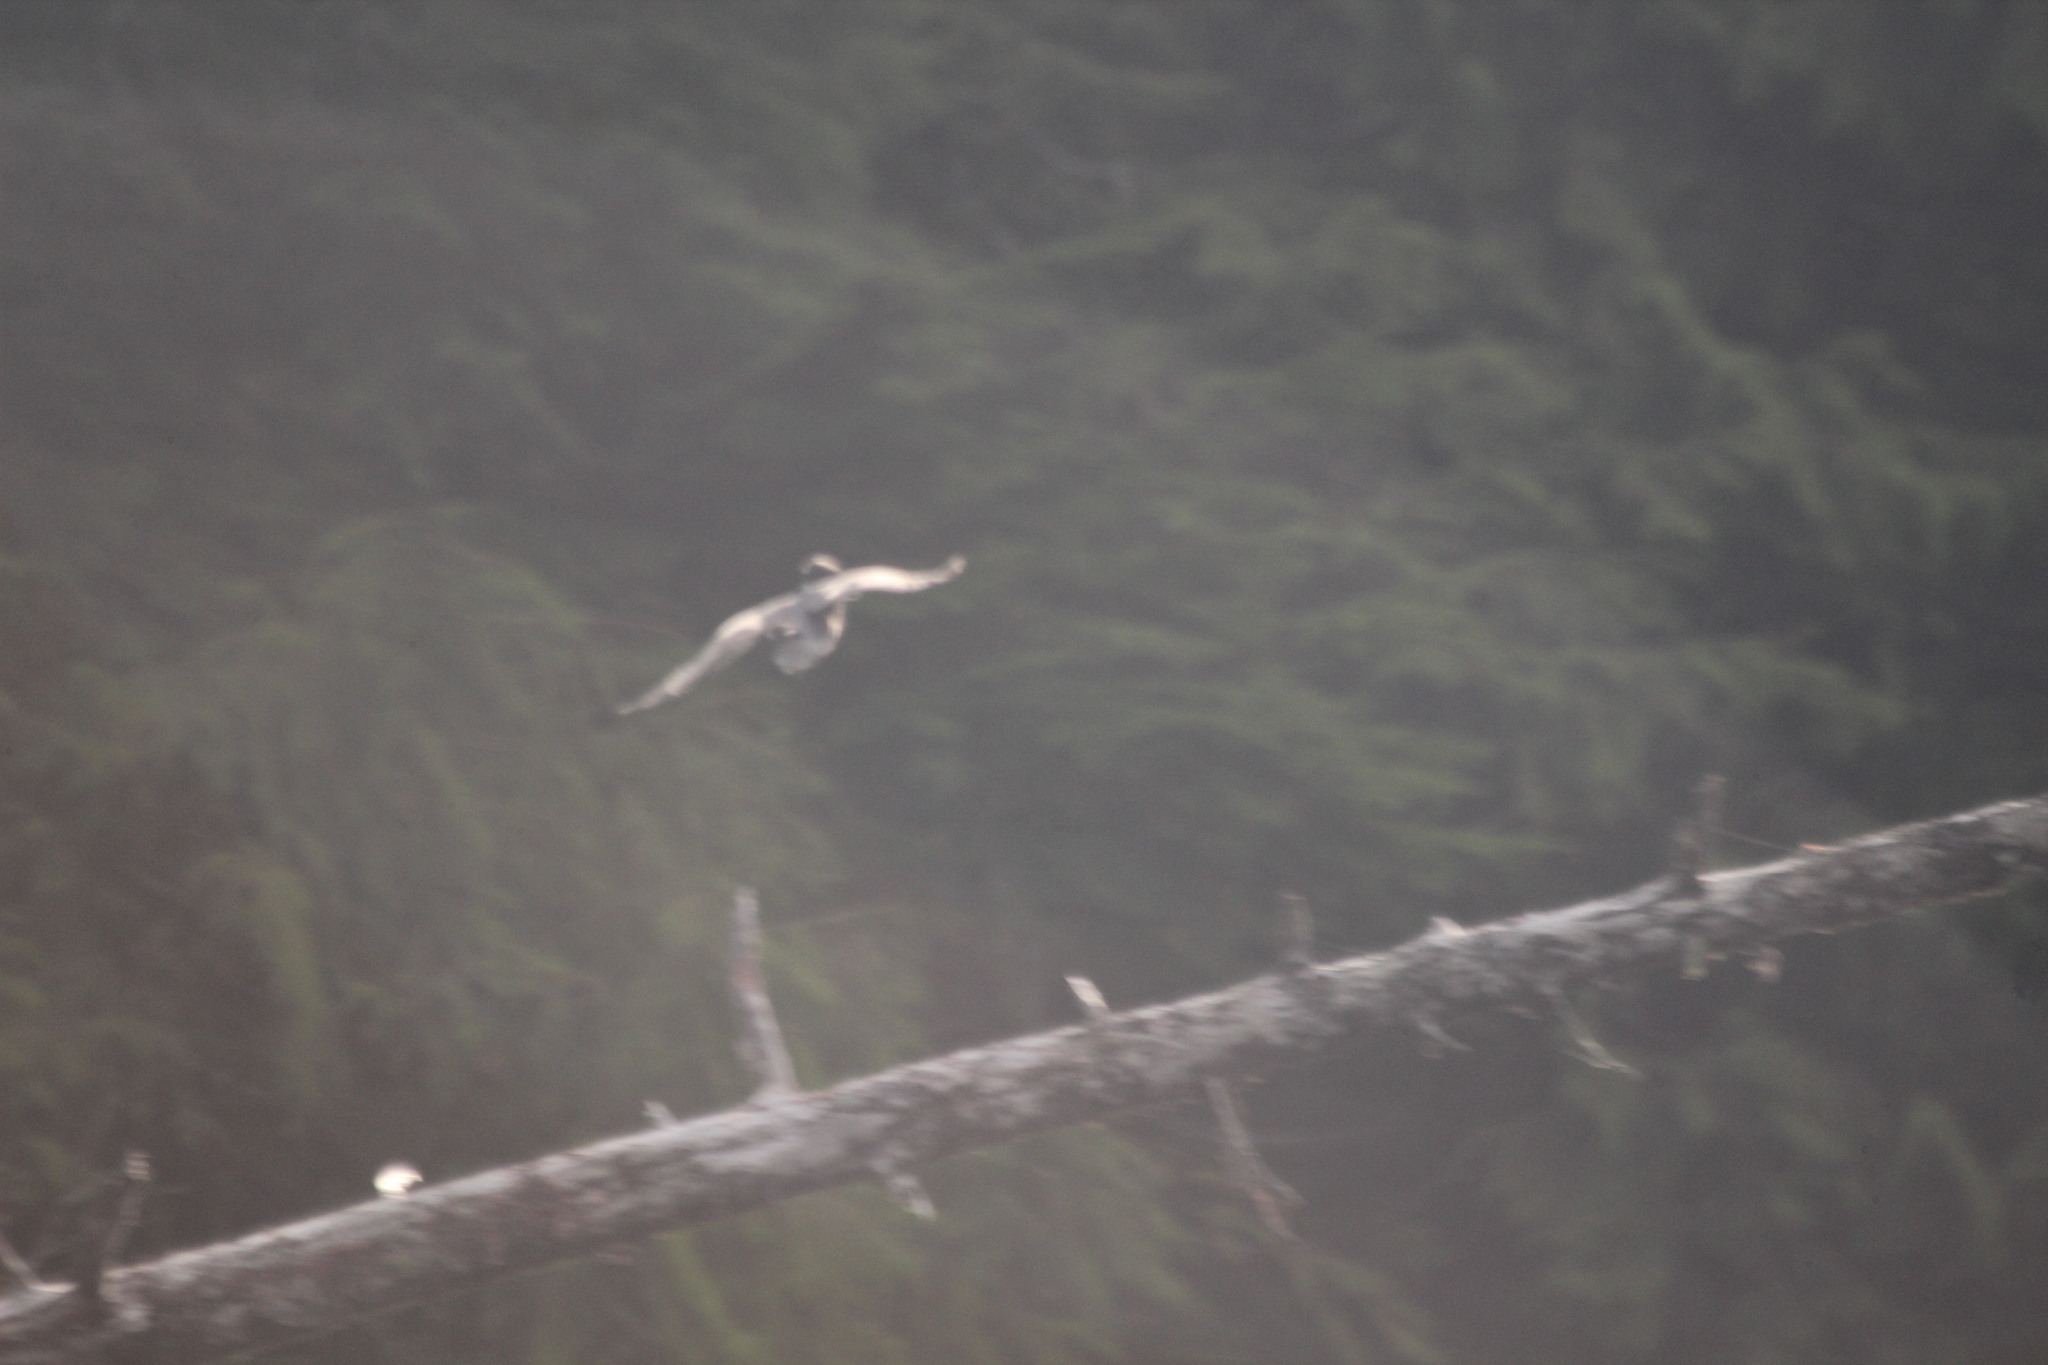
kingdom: Animalia
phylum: Chordata
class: Aves
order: Coraciiformes
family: Alcedinidae
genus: Megaceryle
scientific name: Megaceryle alcyon
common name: Belted kingfisher
